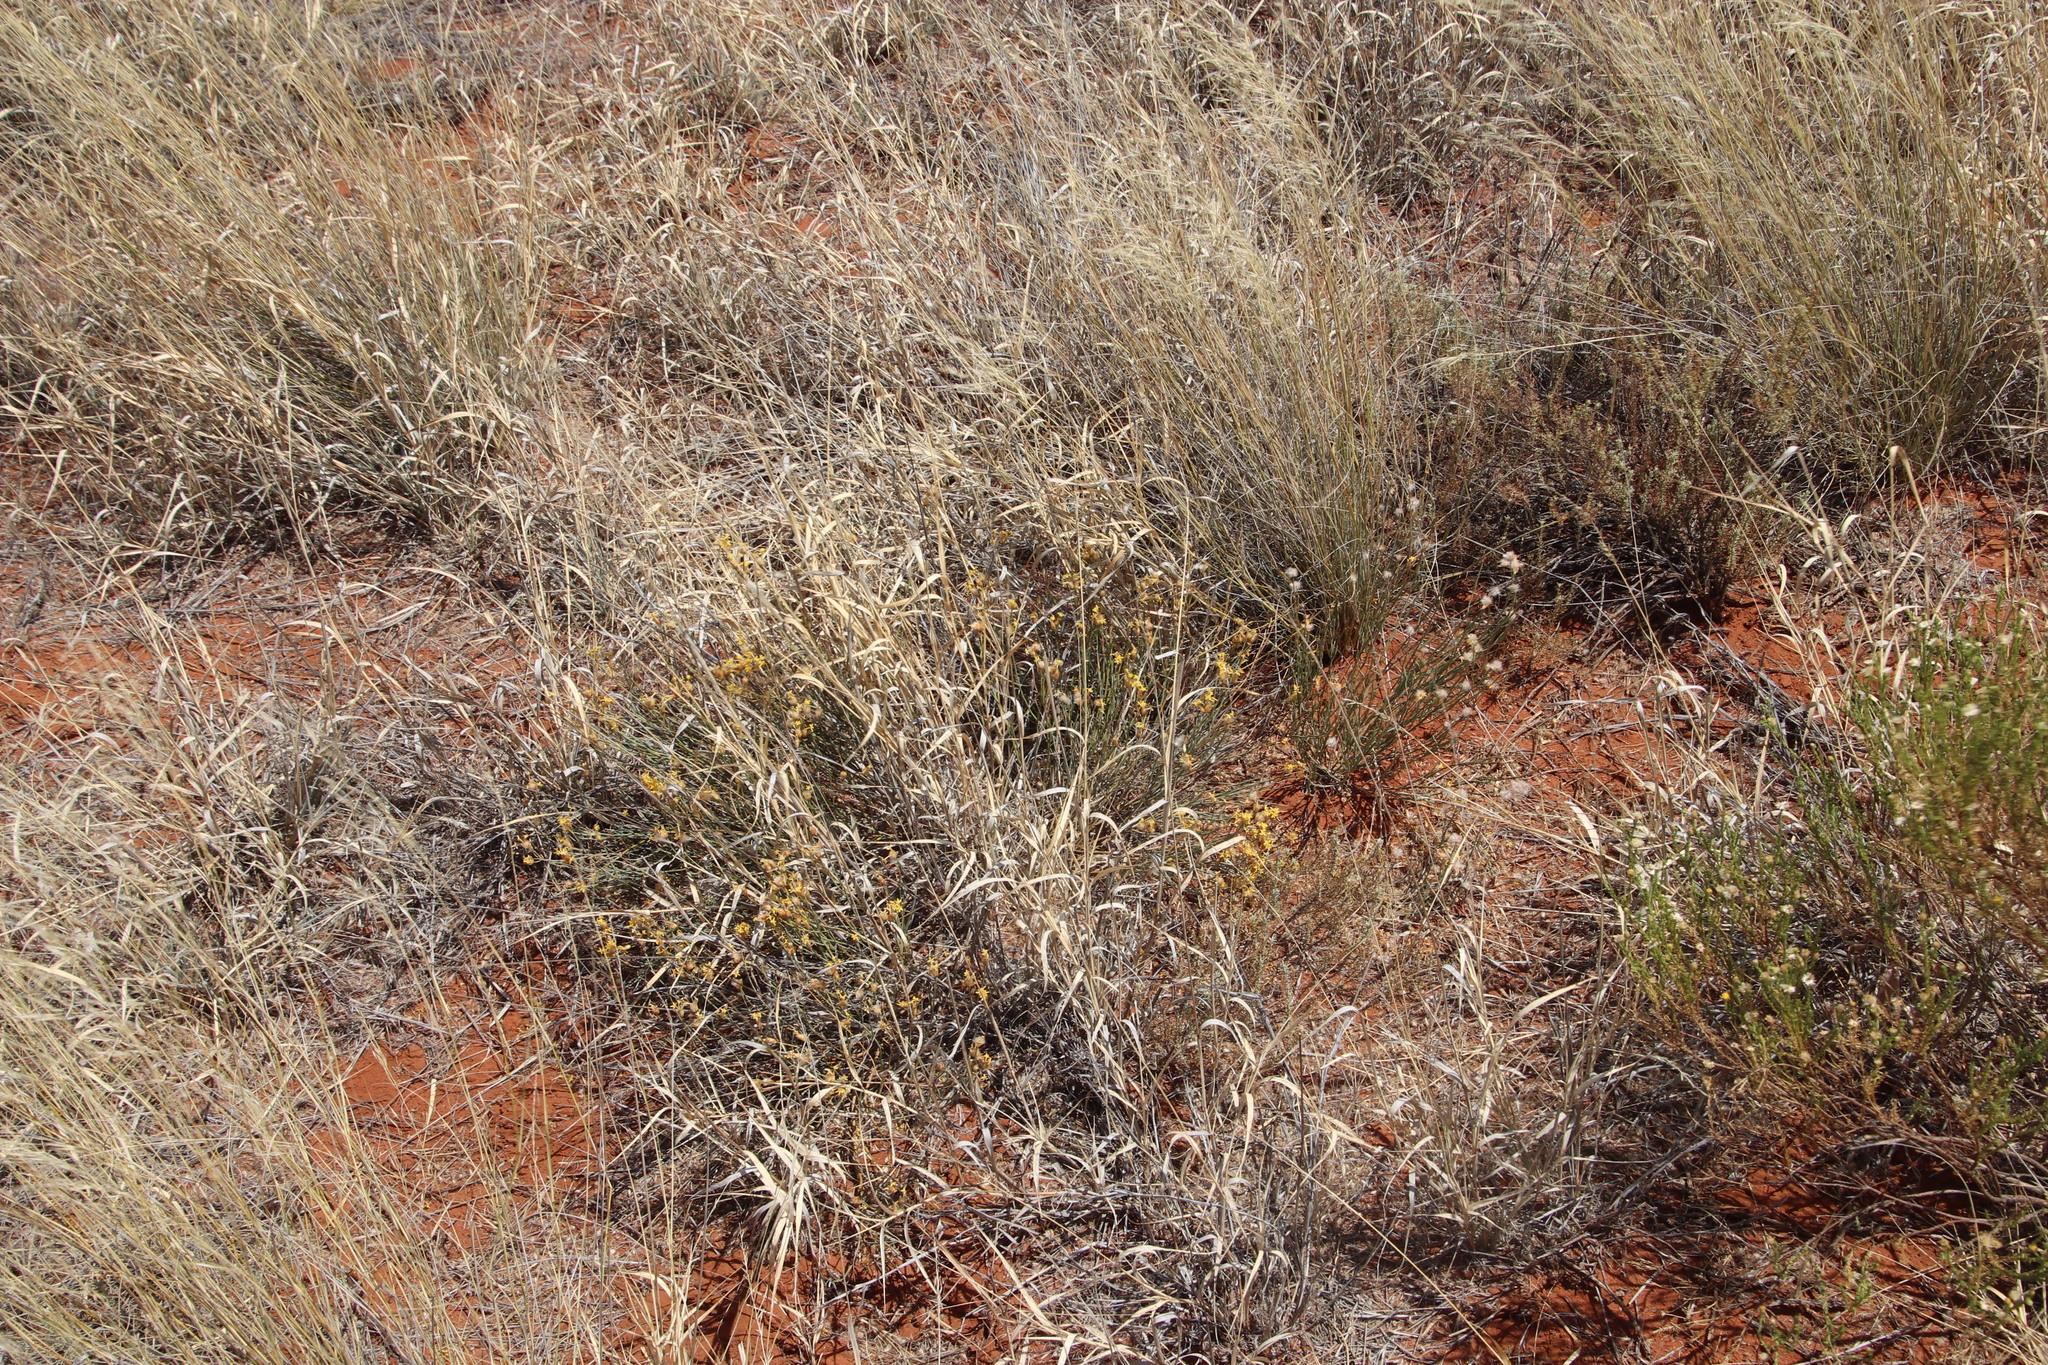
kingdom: Plantae
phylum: Tracheophyta
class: Magnoliopsida
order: Malvales
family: Thymelaeaceae
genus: Gnidia
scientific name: Gnidia polycephala
